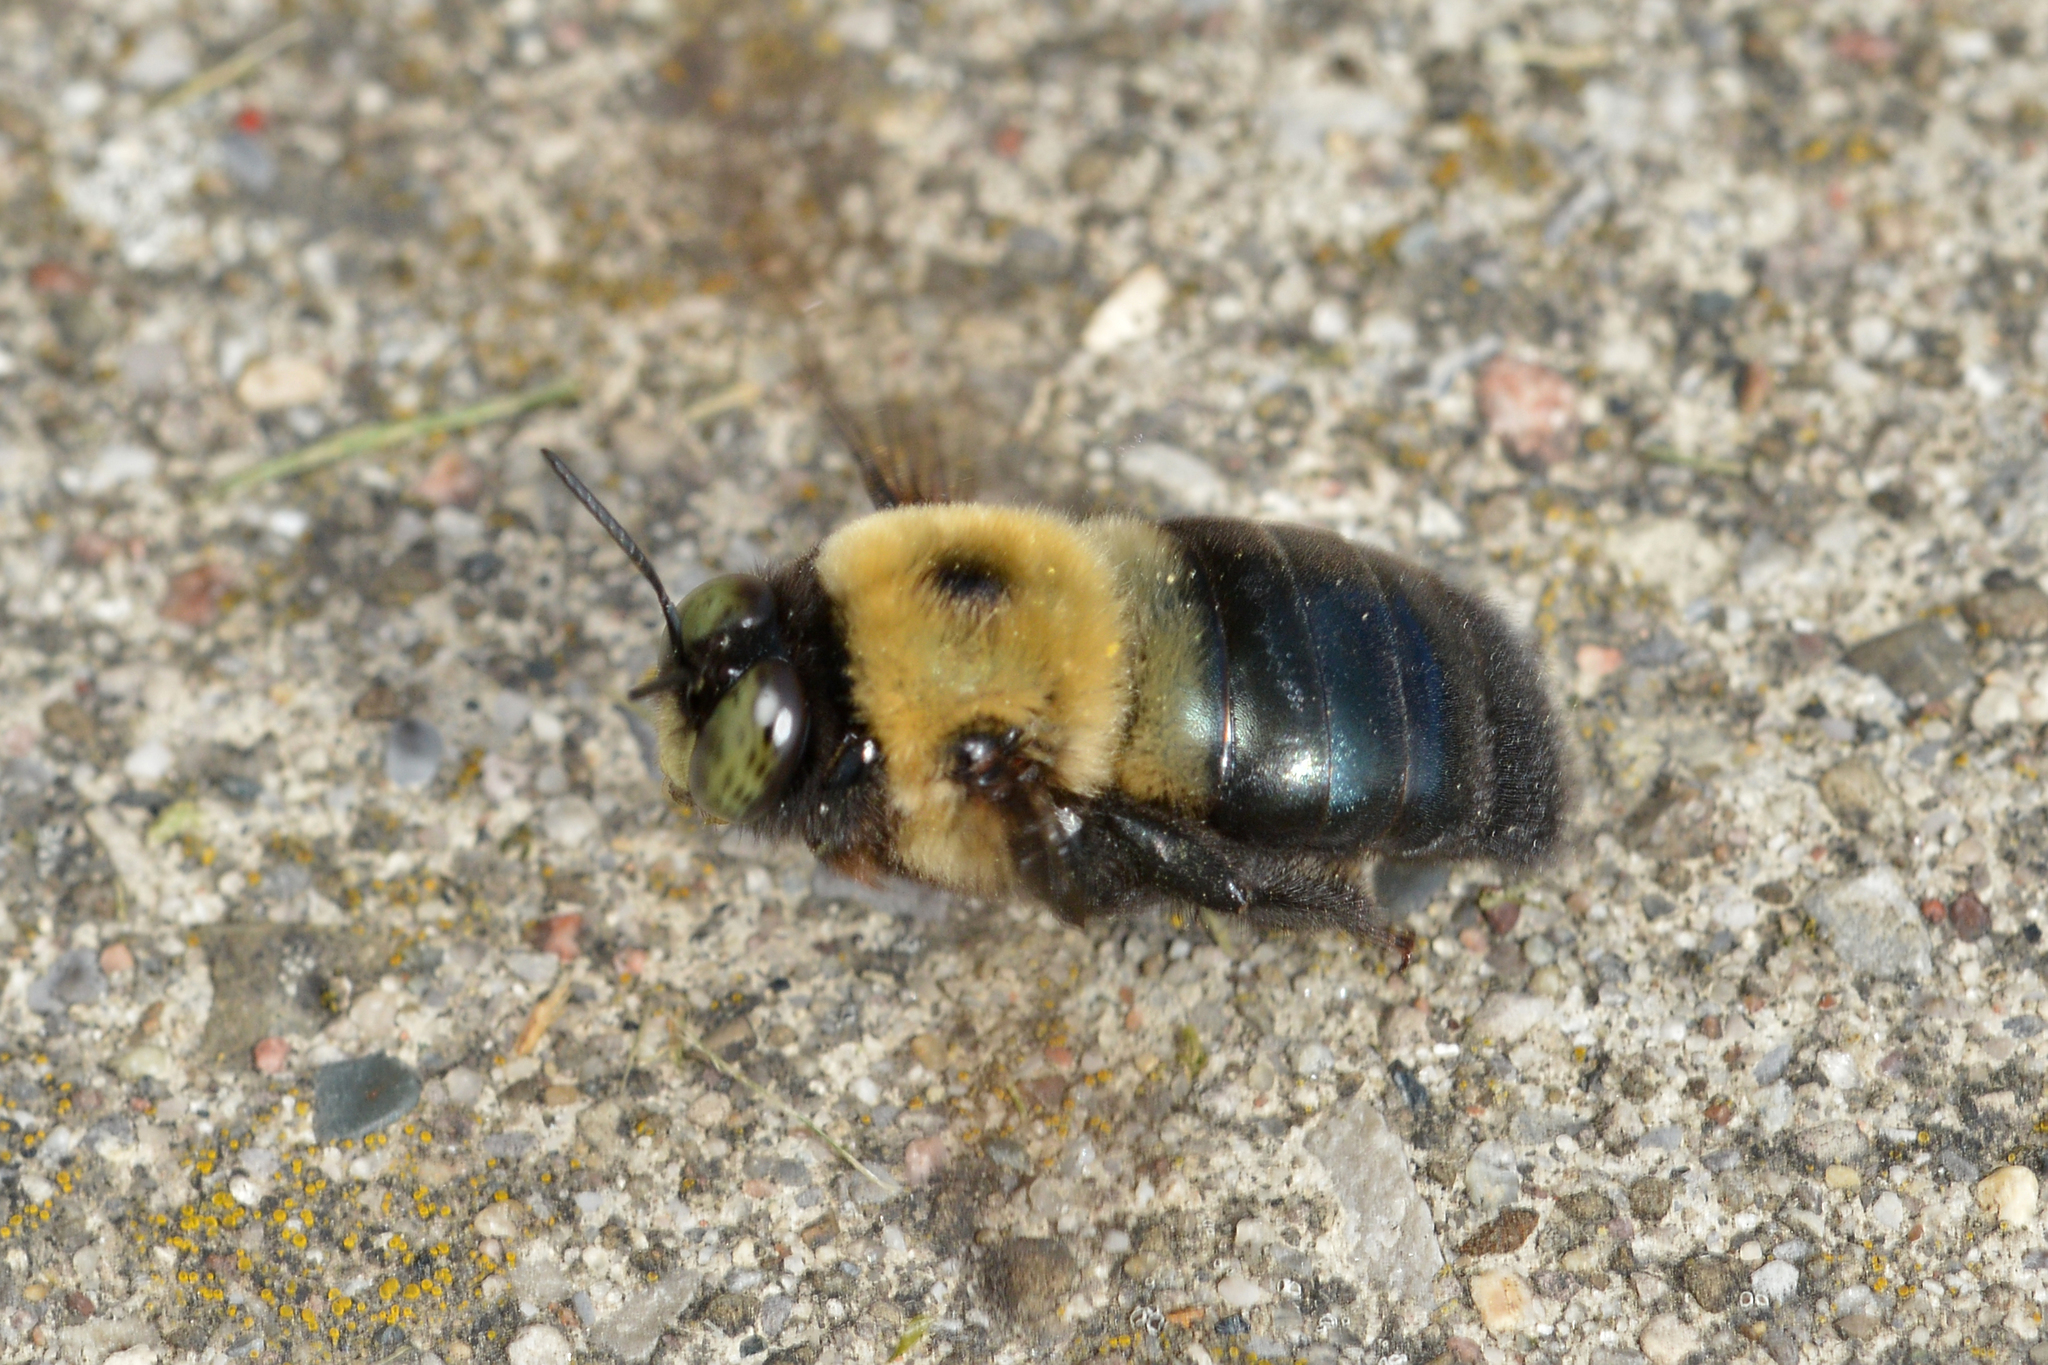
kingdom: Animalia
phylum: Arthropoda
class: Insecta
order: Hymenoptera
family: Apidae
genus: Xylocopa
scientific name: Xylocopa virginica
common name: Carpenter bee
